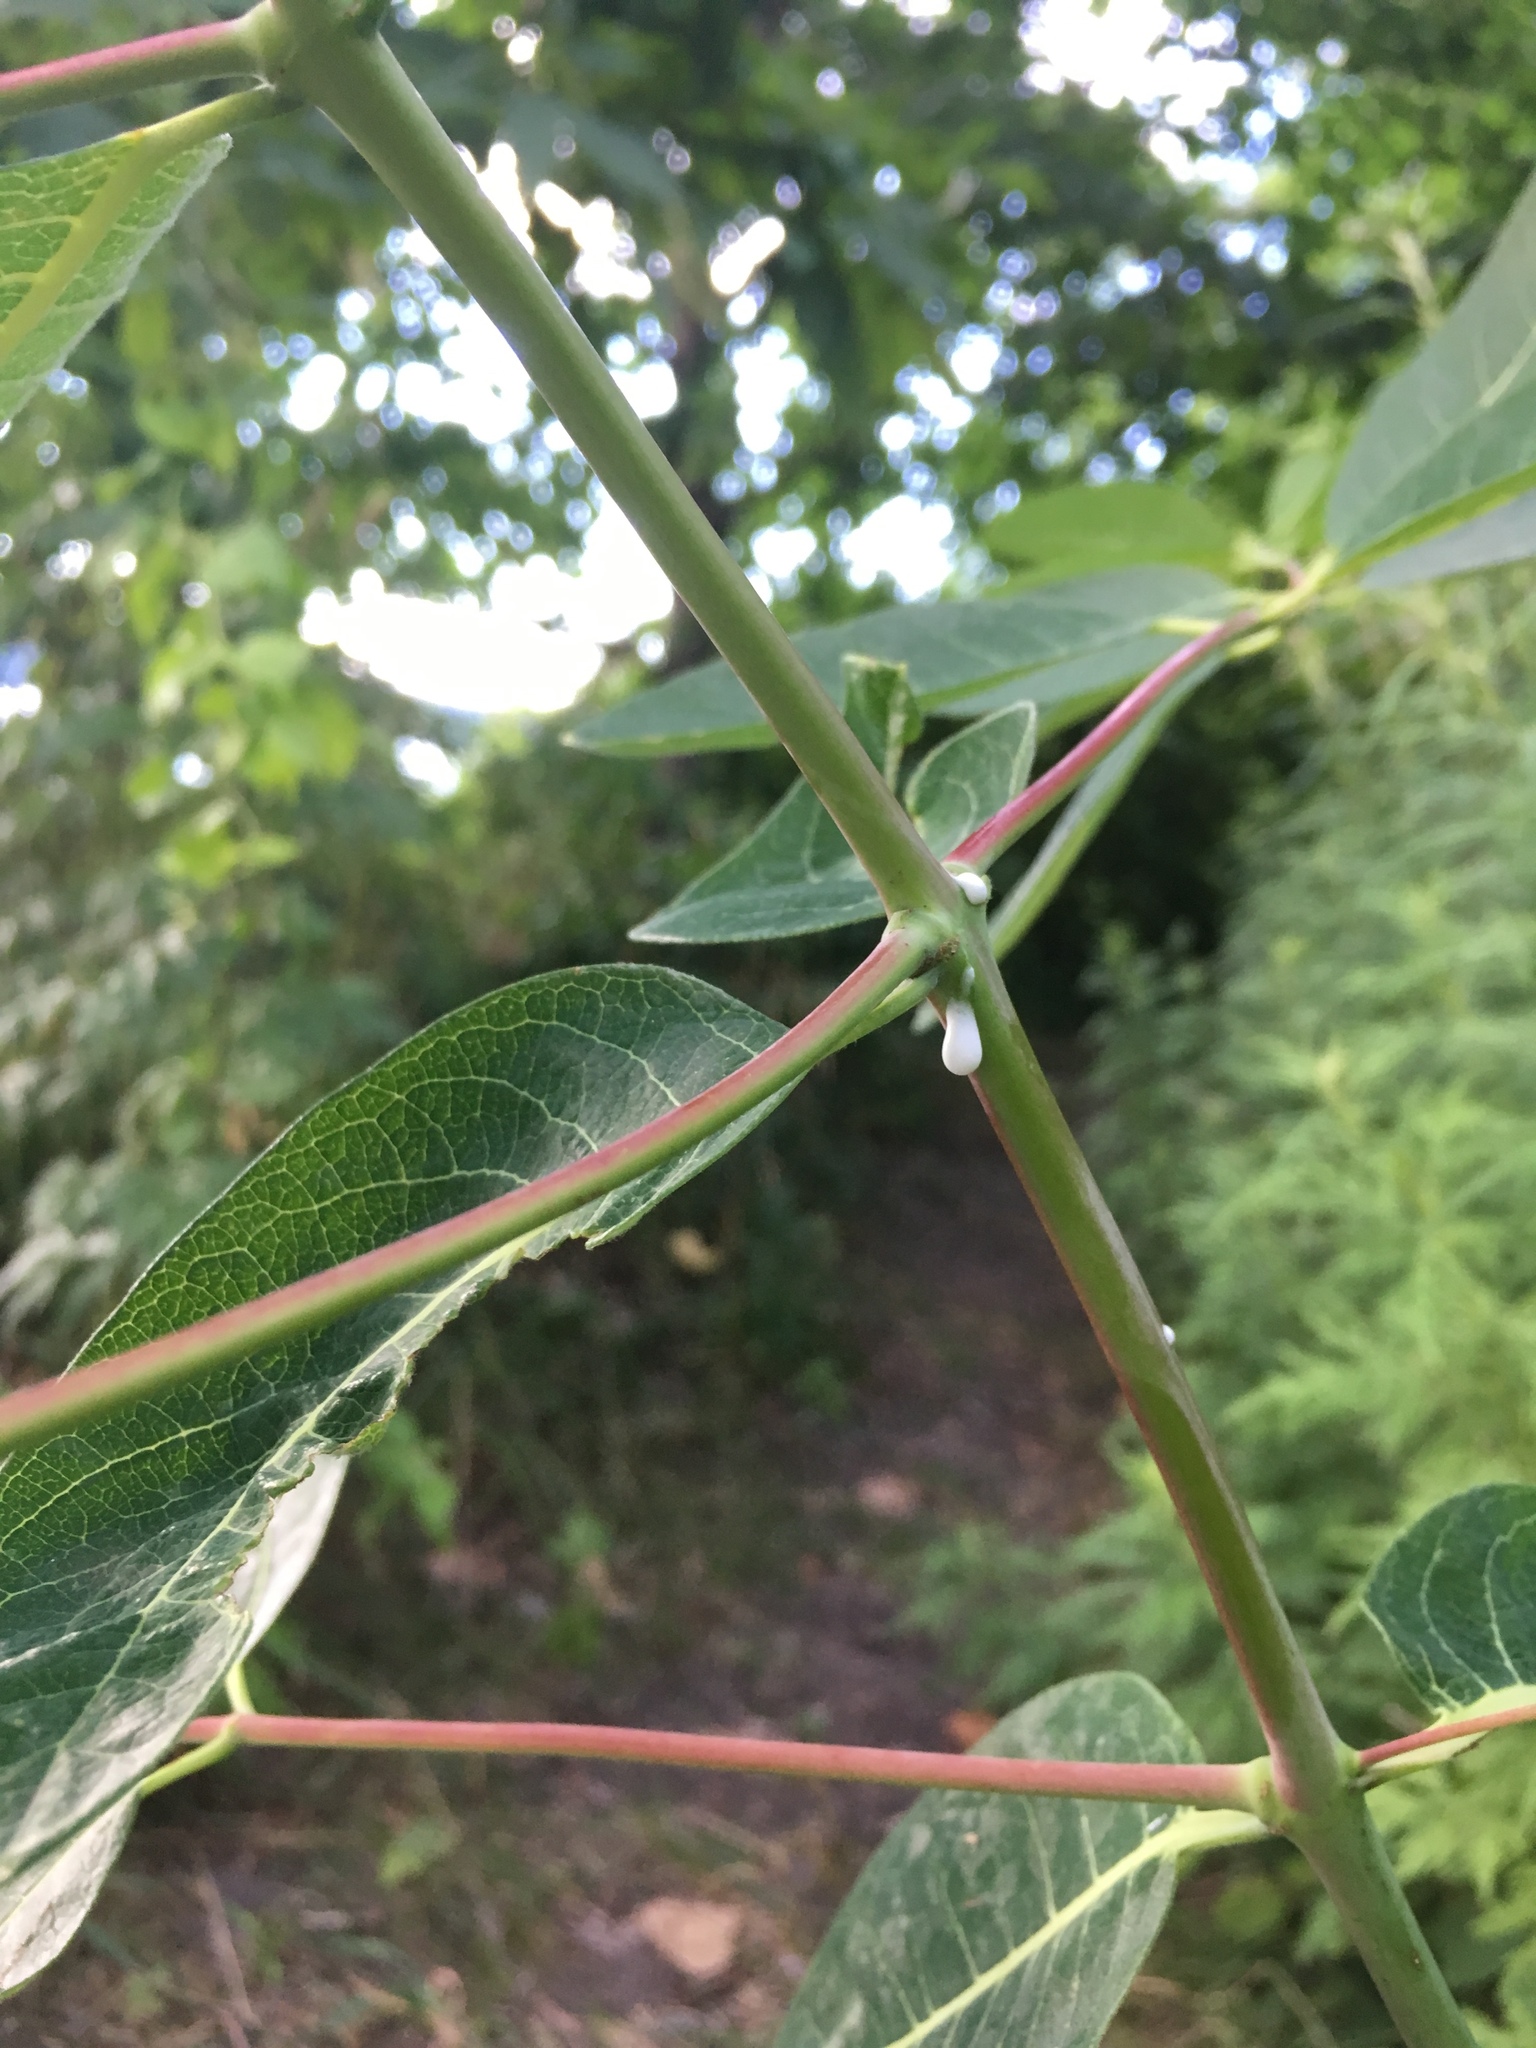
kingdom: Plantae
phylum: Tracheophyta
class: Magnoliopsida
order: Gentianales
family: Apocynaceae
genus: Apocynum
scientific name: Apocynum cannabinum
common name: Hemp dogbane
